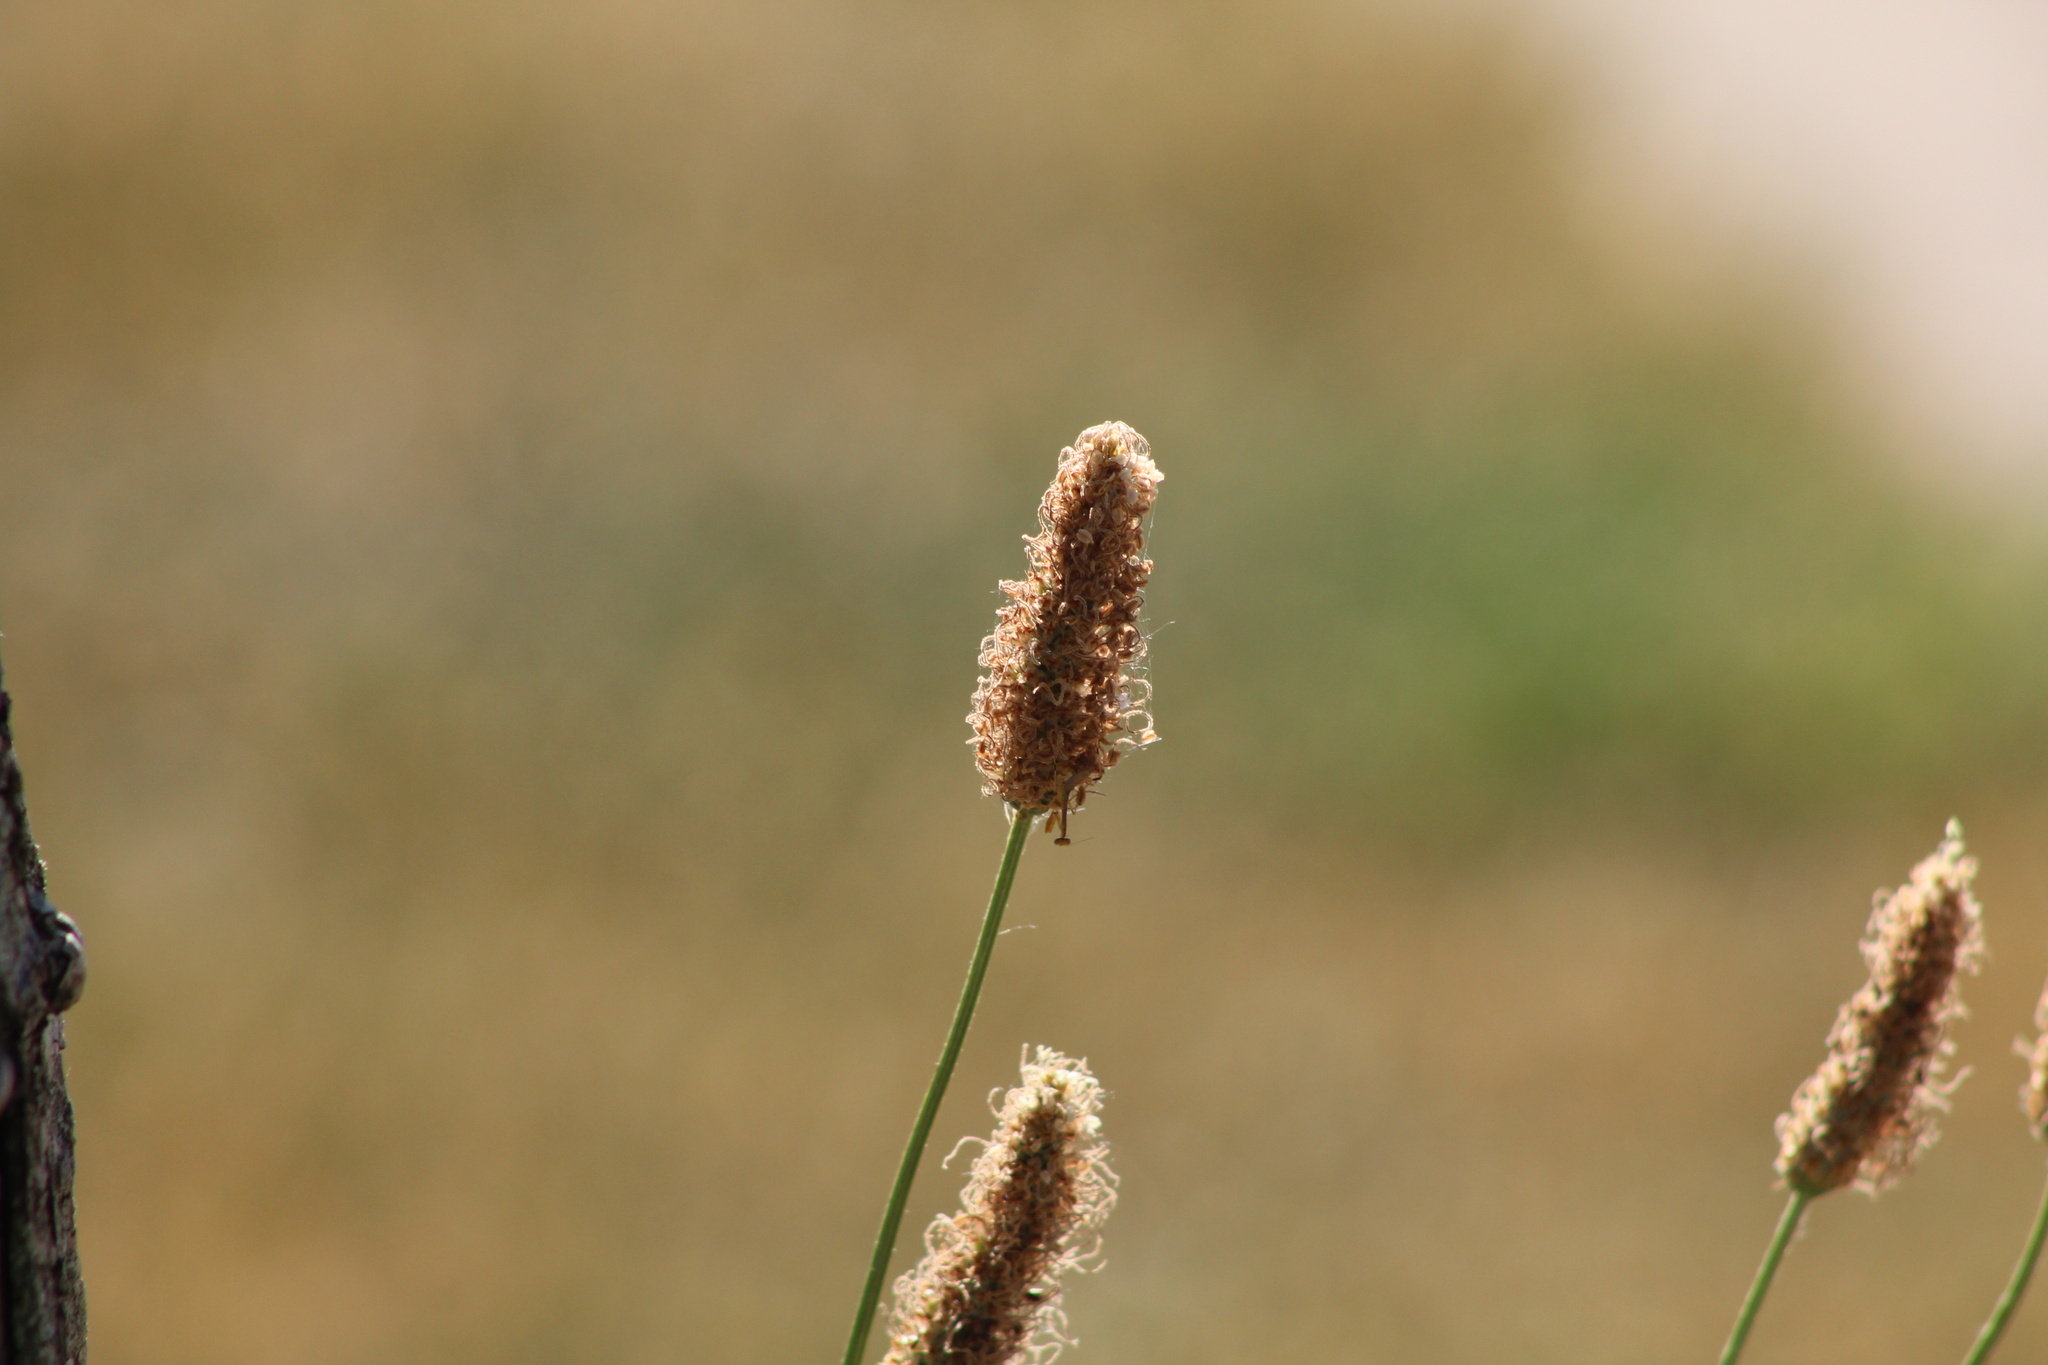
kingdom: Plantae
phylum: Tracheophyta
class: Magnoliopsida
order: Lamiales
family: Plantaginaceae
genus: Plantago
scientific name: Plantago lanceolata
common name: Ribwort plantain
